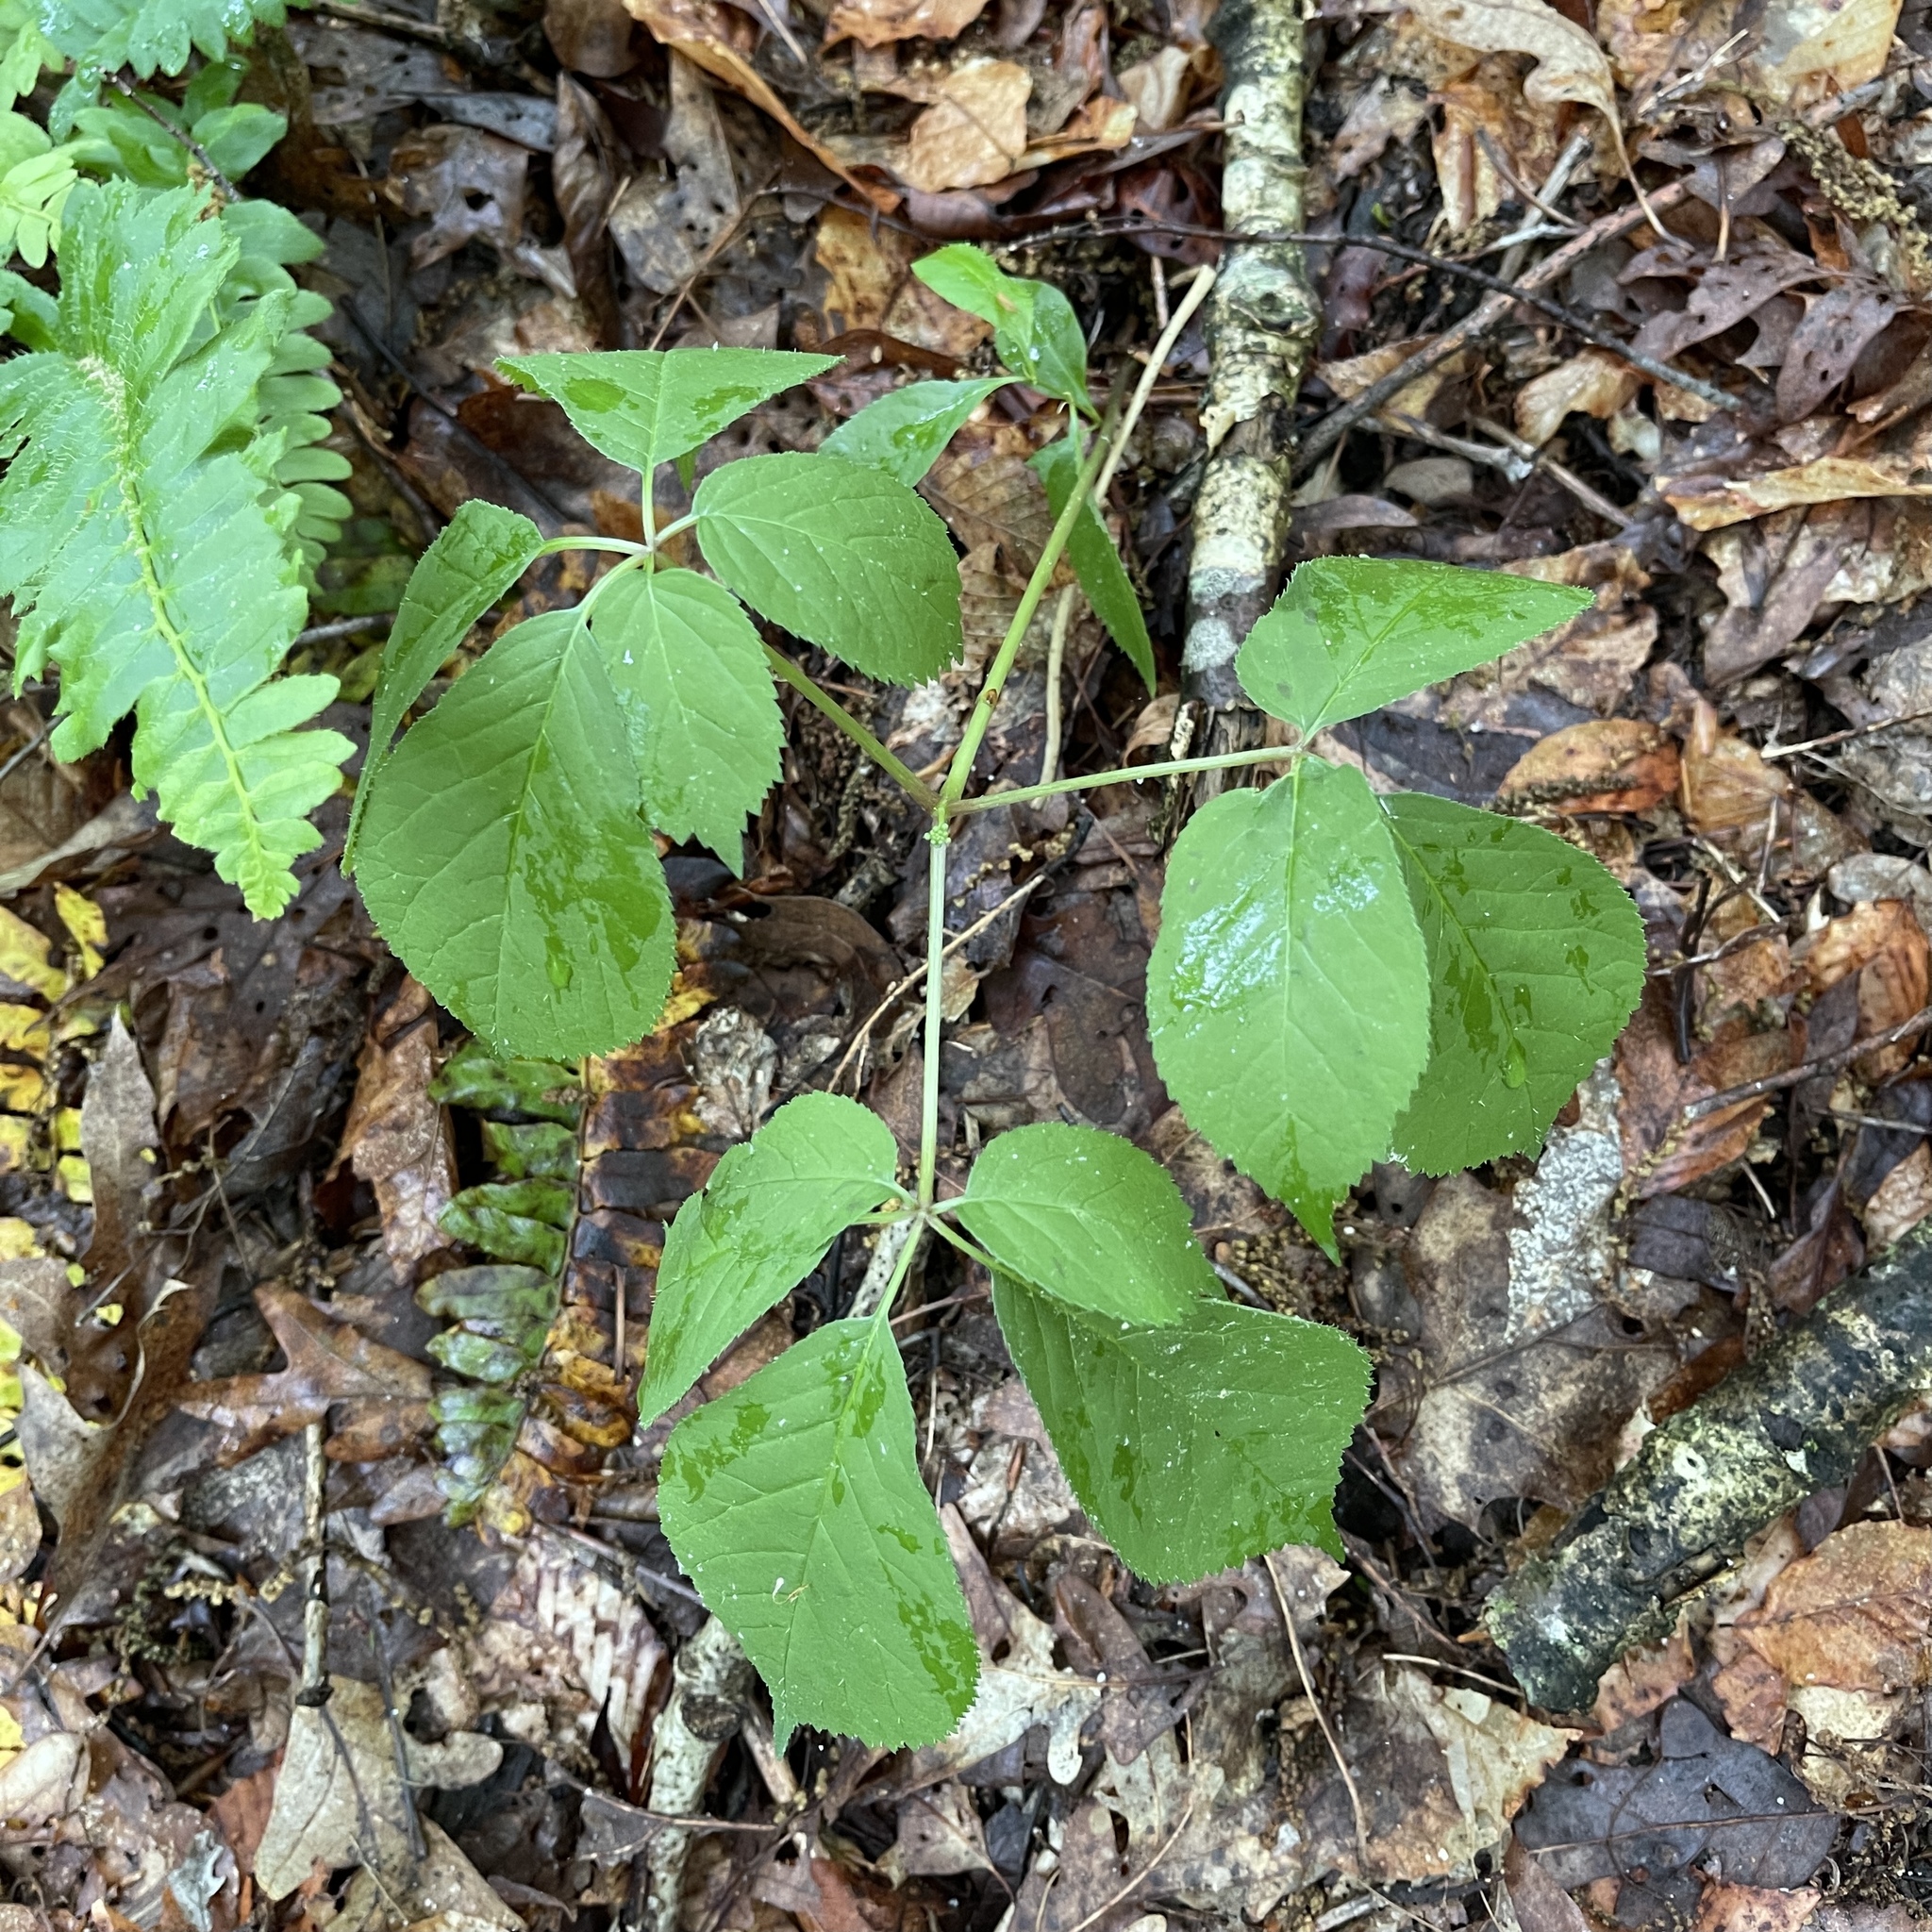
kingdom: Plantae
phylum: Tracheophyta
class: Magnoliopsida
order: Apiales
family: Araliaceae
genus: Panax
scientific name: Panax quinquefolius
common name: American ginseng
